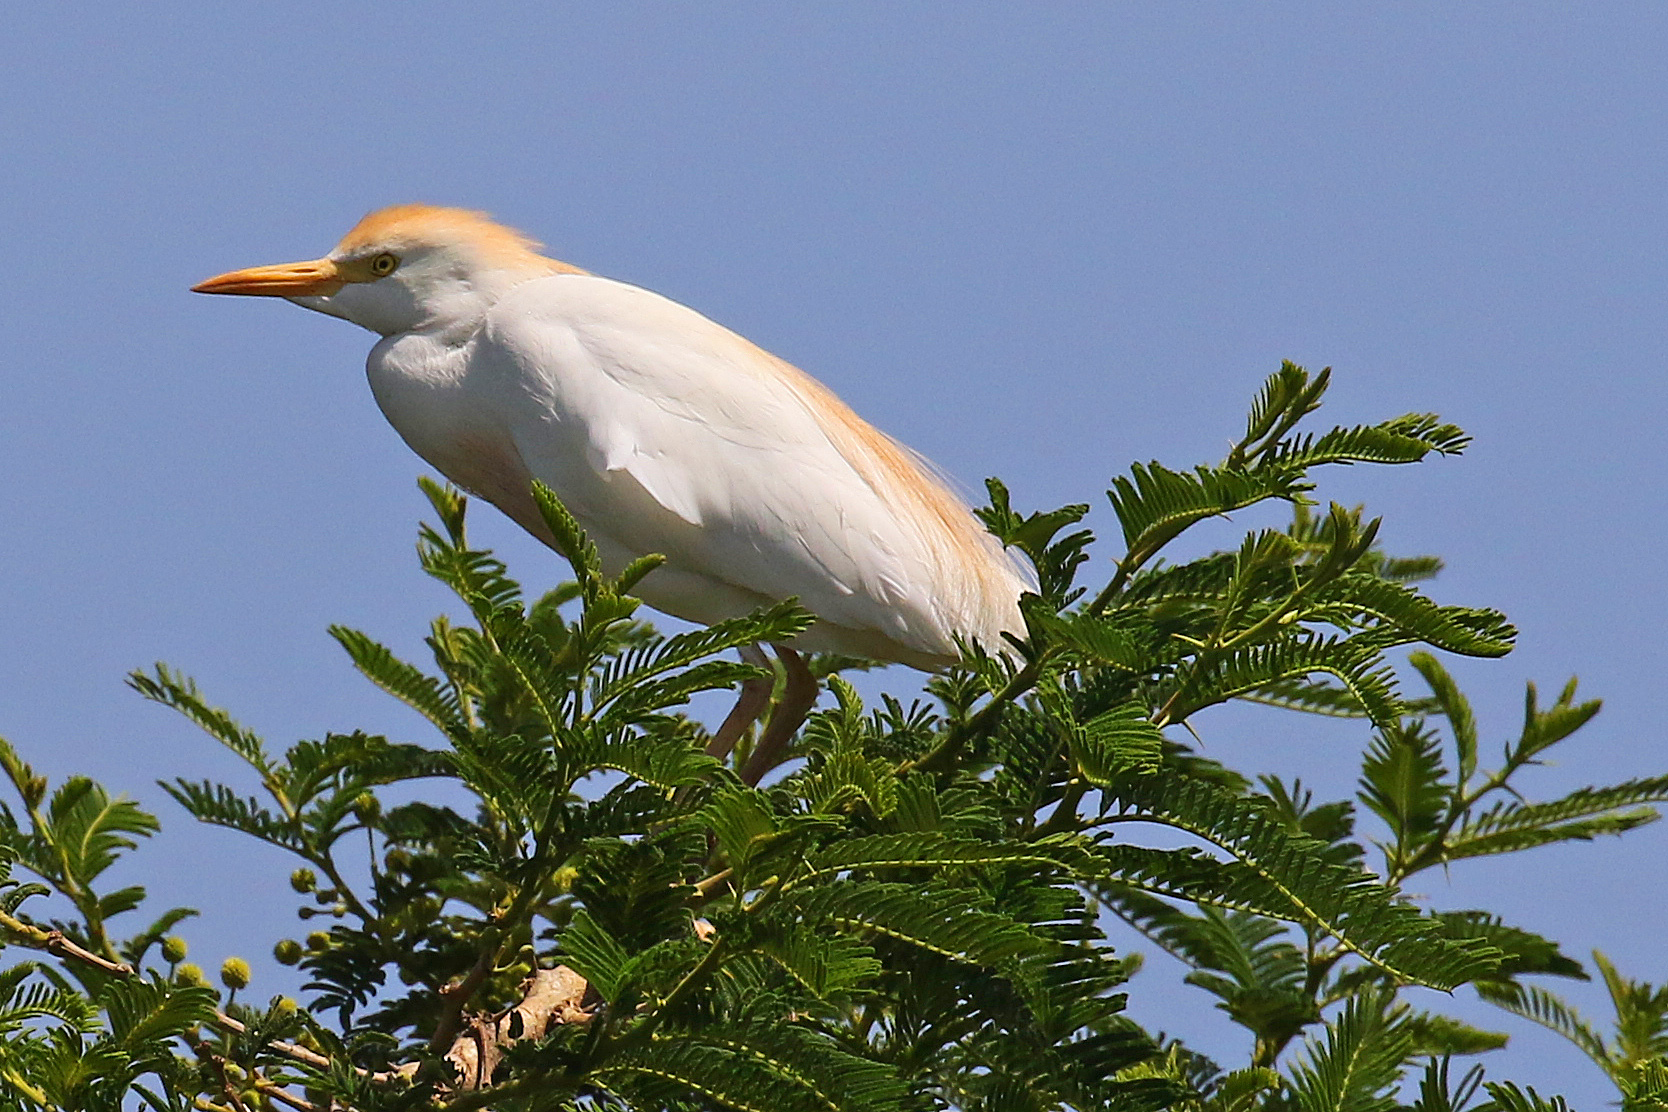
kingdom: Animalia
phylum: Chordata
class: Aves
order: Pelecaniformes
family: Ardeidae
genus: Bubulcus
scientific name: Bubulcus ibis
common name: Cattle egret
